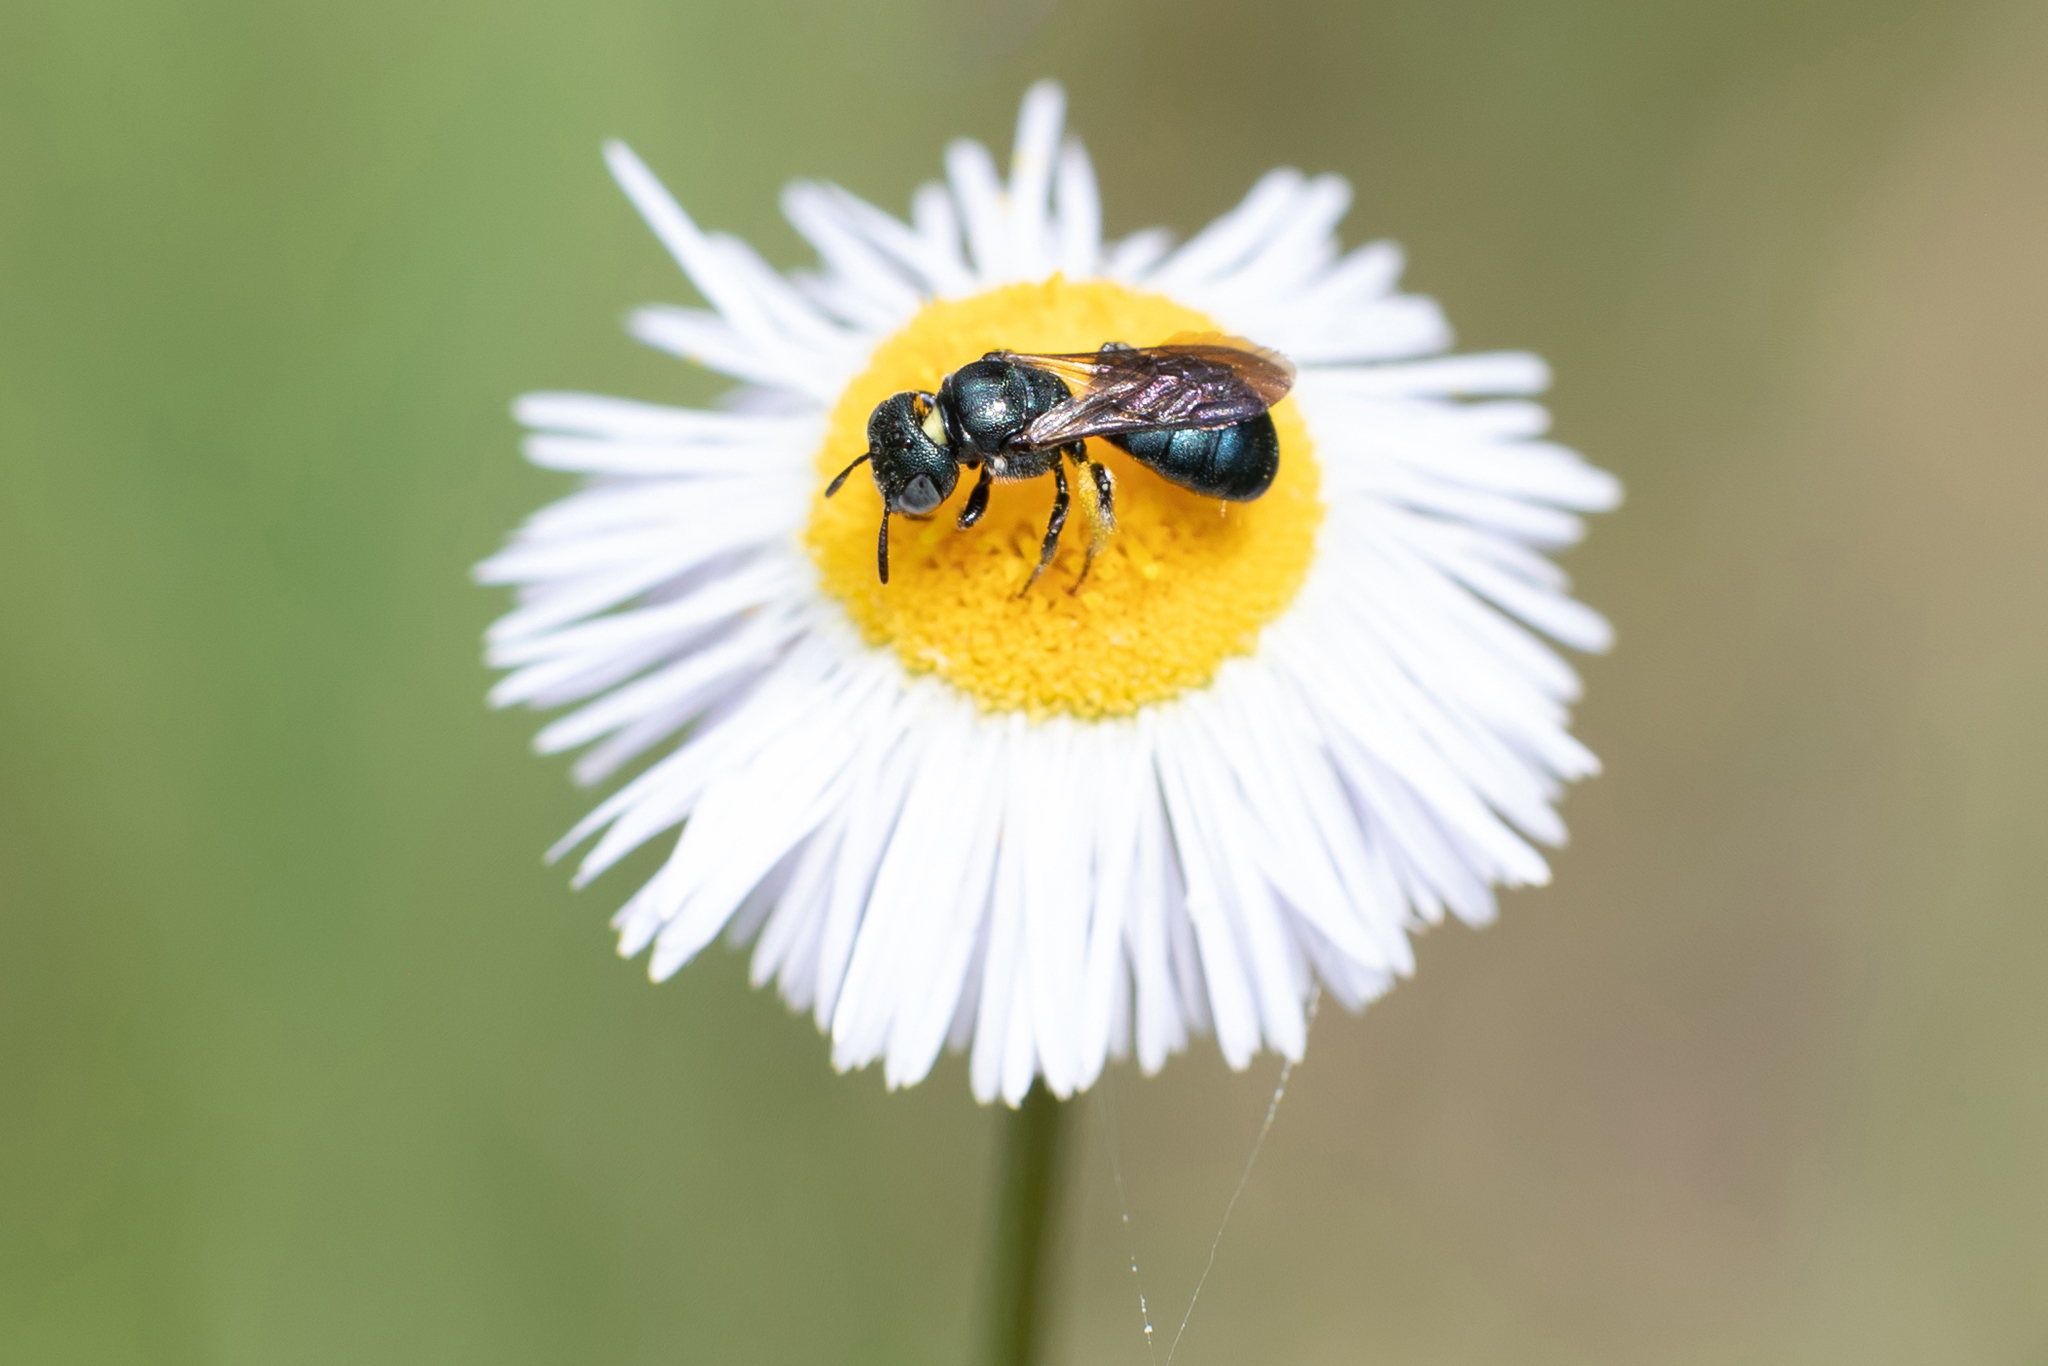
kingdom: Animalia
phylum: Arthropoda
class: Insecta
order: Hymenoptera
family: Apidae
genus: Ceratina
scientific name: Ceratina floridana
